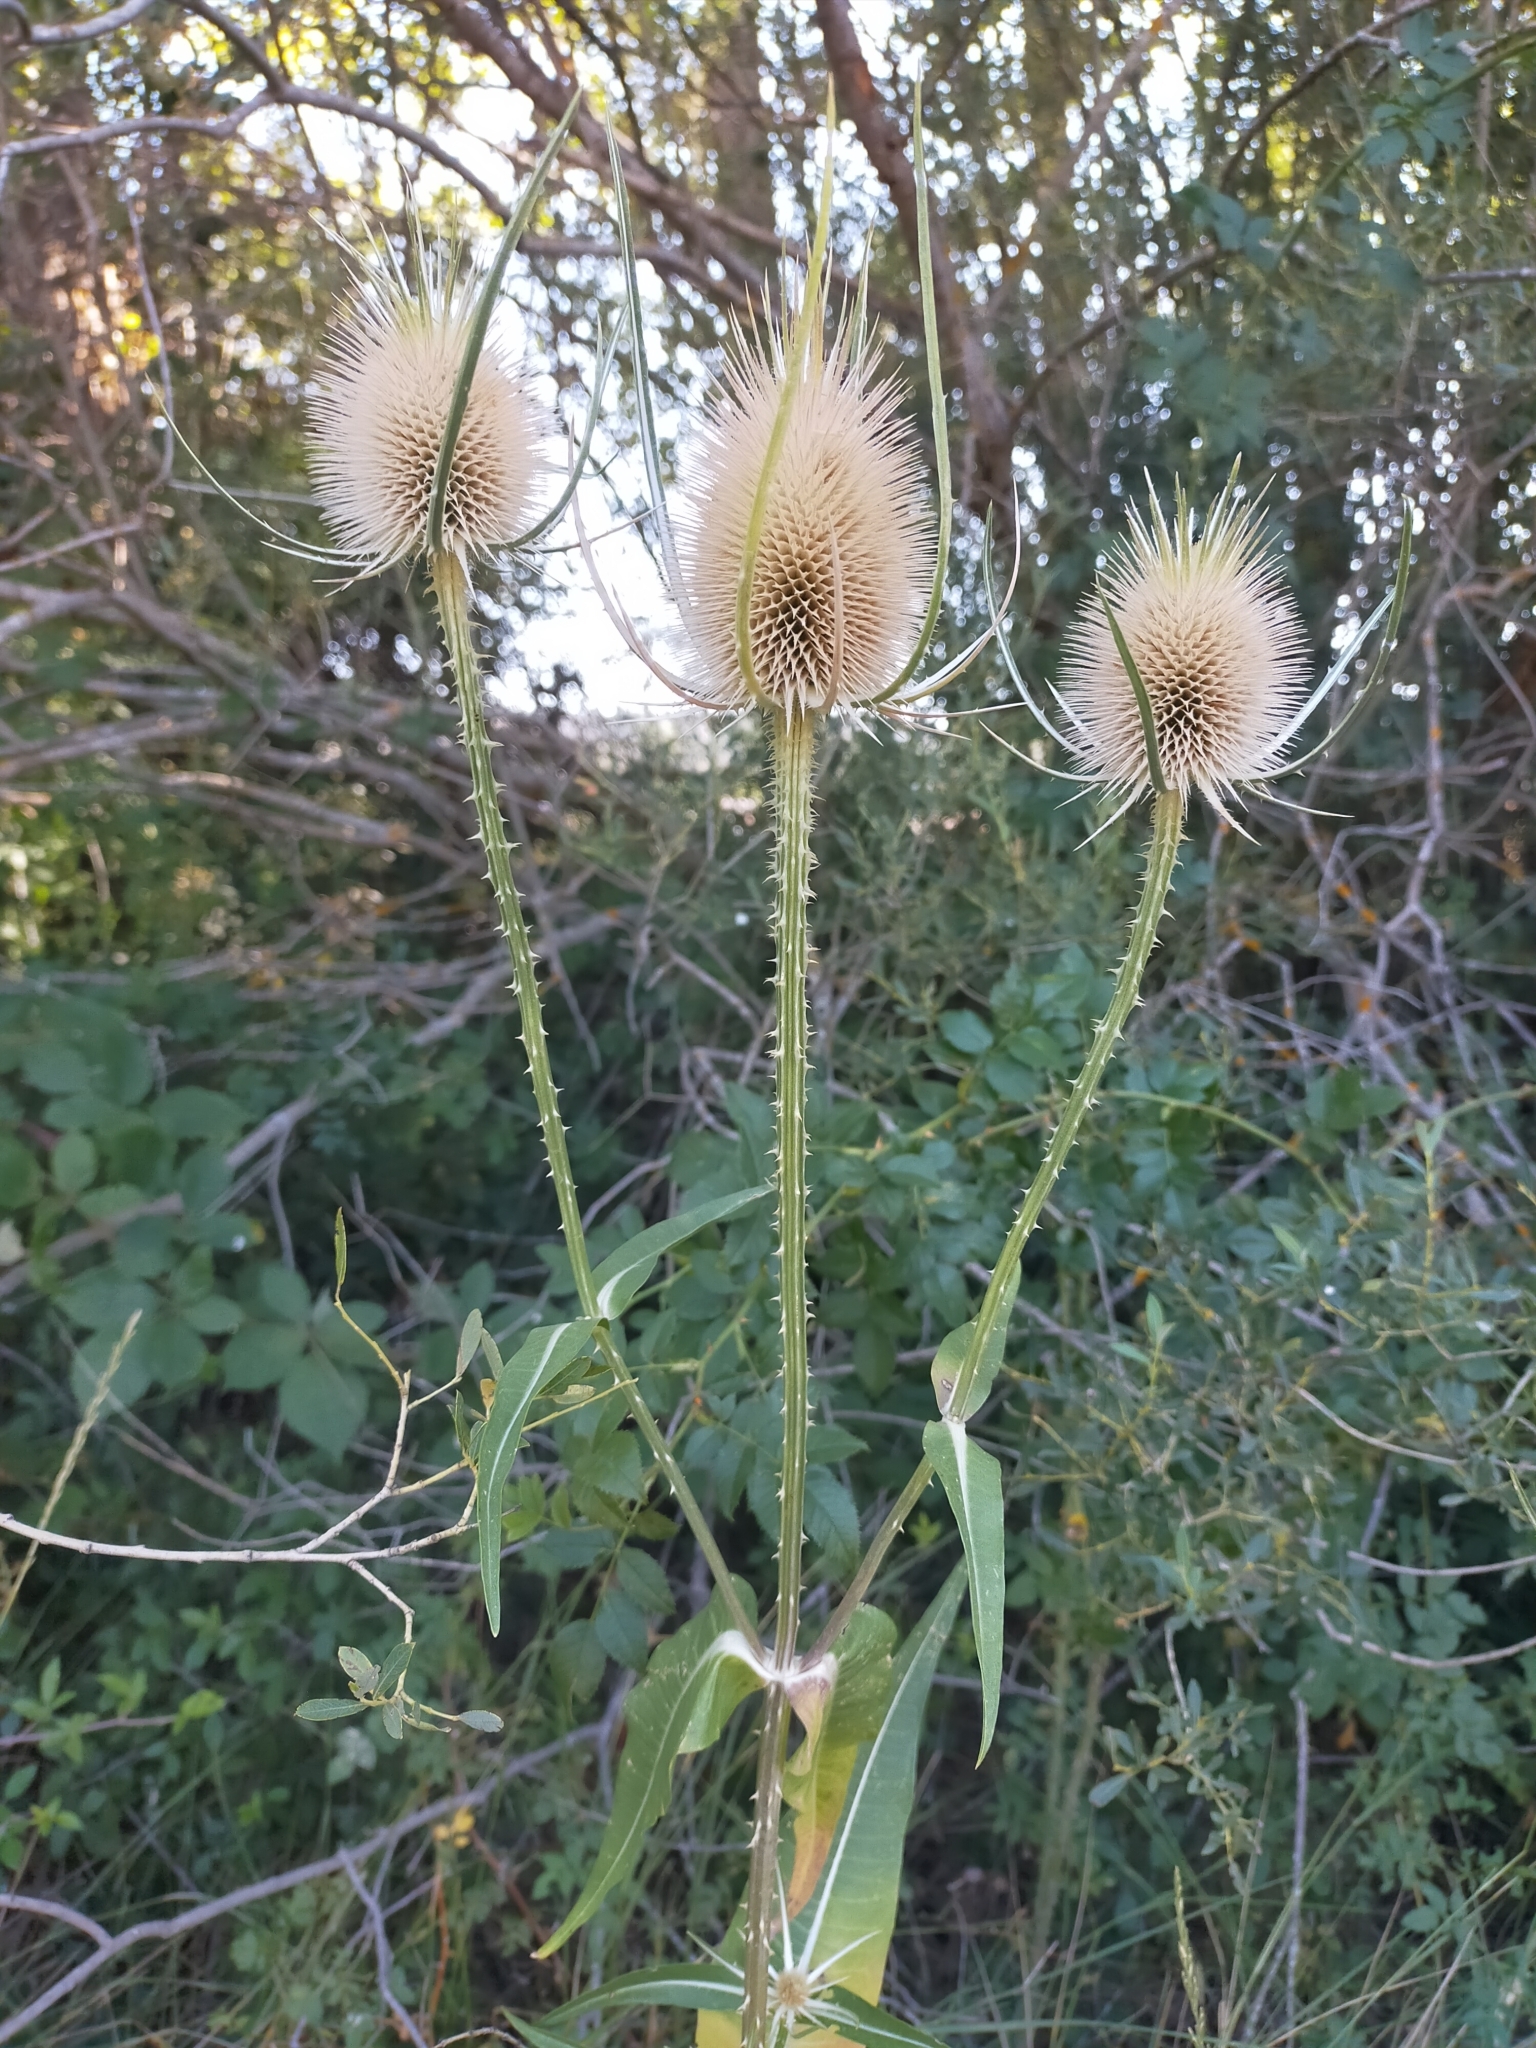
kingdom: Plantae
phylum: Tracheophyta
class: Magnoliopsida
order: Dipsacales
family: Caprifoliaceae
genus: Dipsacus
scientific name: Dipsacus fullonum
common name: Teasel
